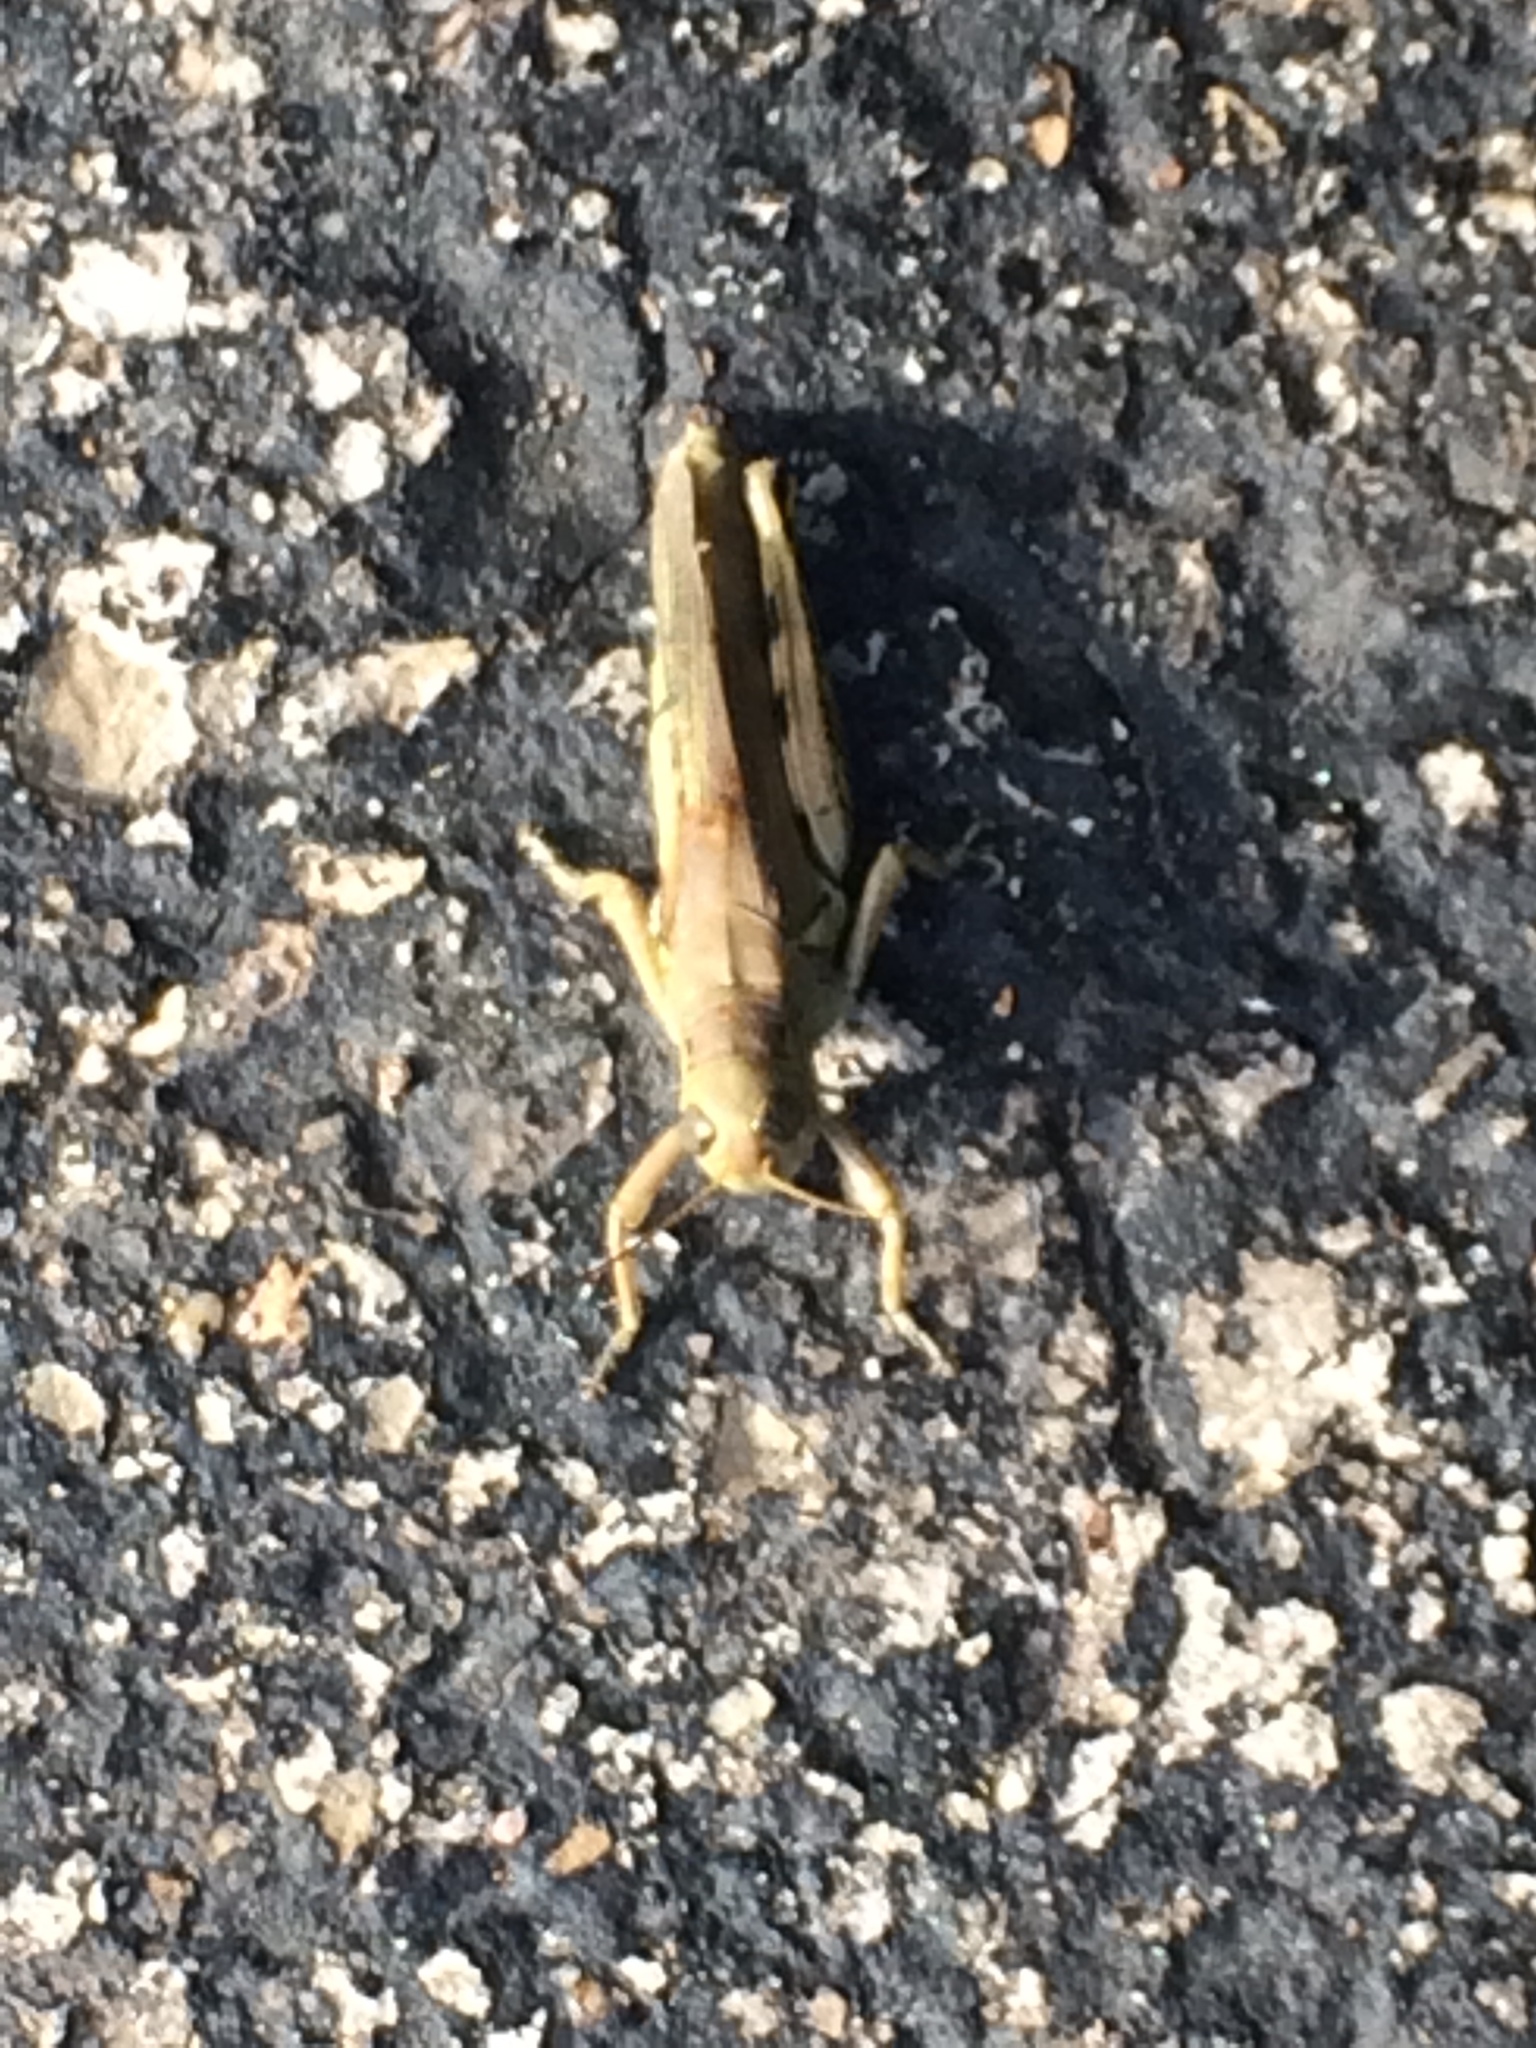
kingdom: Animalia
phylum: Arthropoda
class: Insecta
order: Orthoptera
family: Acrididae
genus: Melanoplus
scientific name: Melanoplus differentialis
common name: Differential grasshopper
